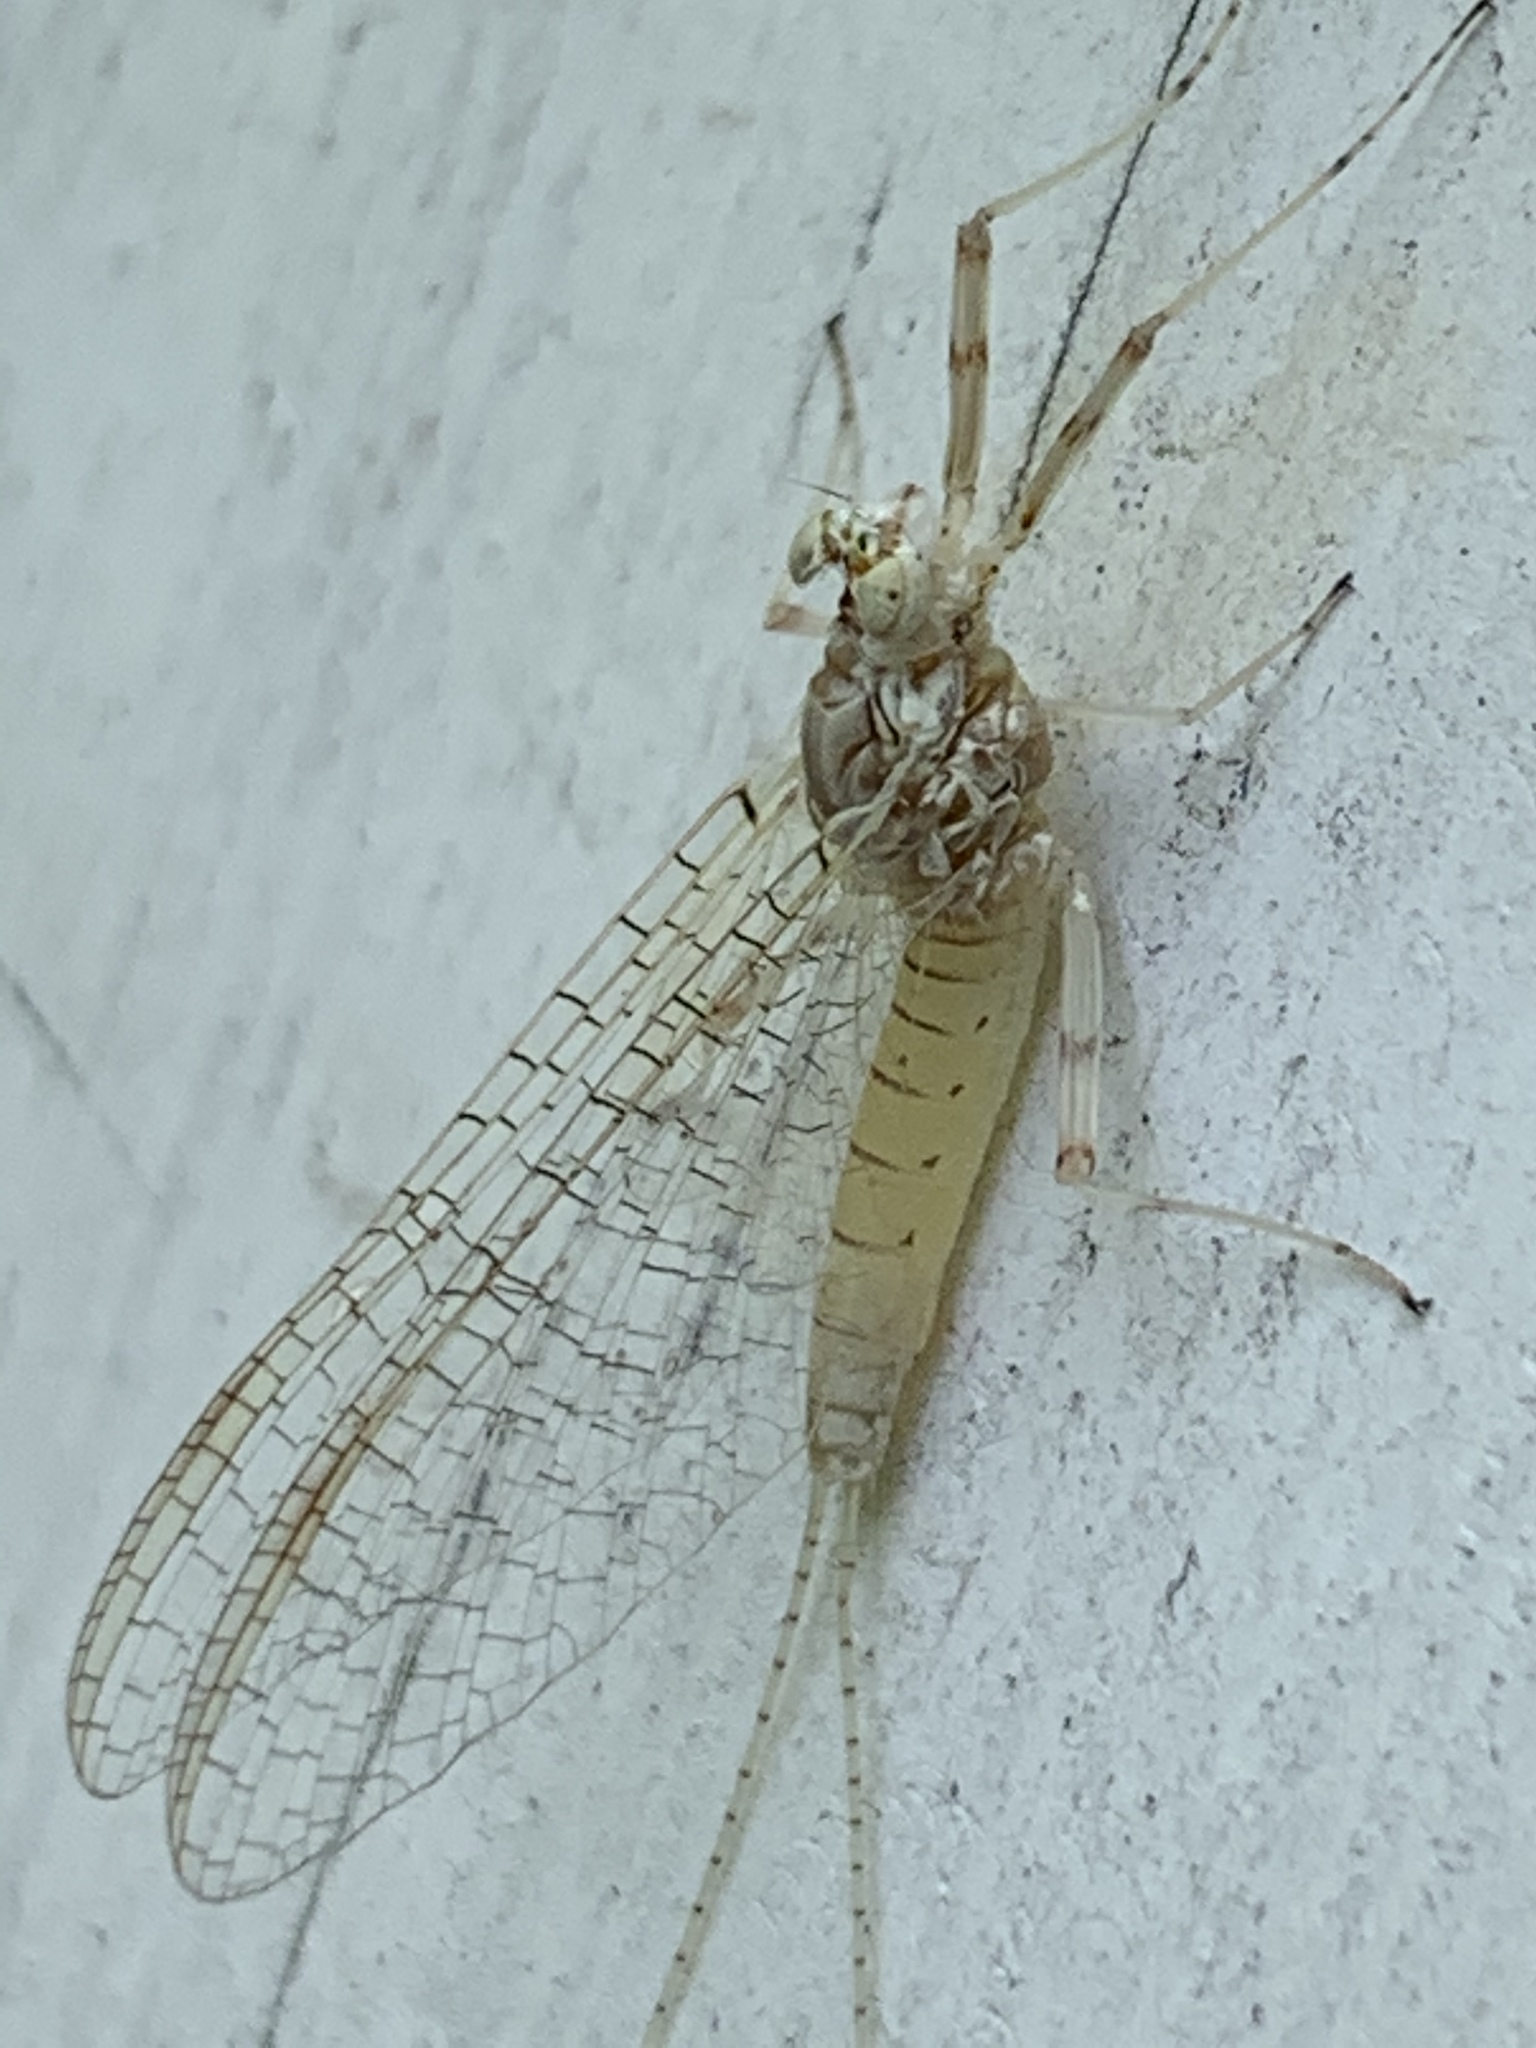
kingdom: Animalia
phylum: Arthropoda
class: Insecta
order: Ephemeroptera
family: Heptageniidae
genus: Maccaffertium
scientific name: Maccaffertium mediopunctatum
